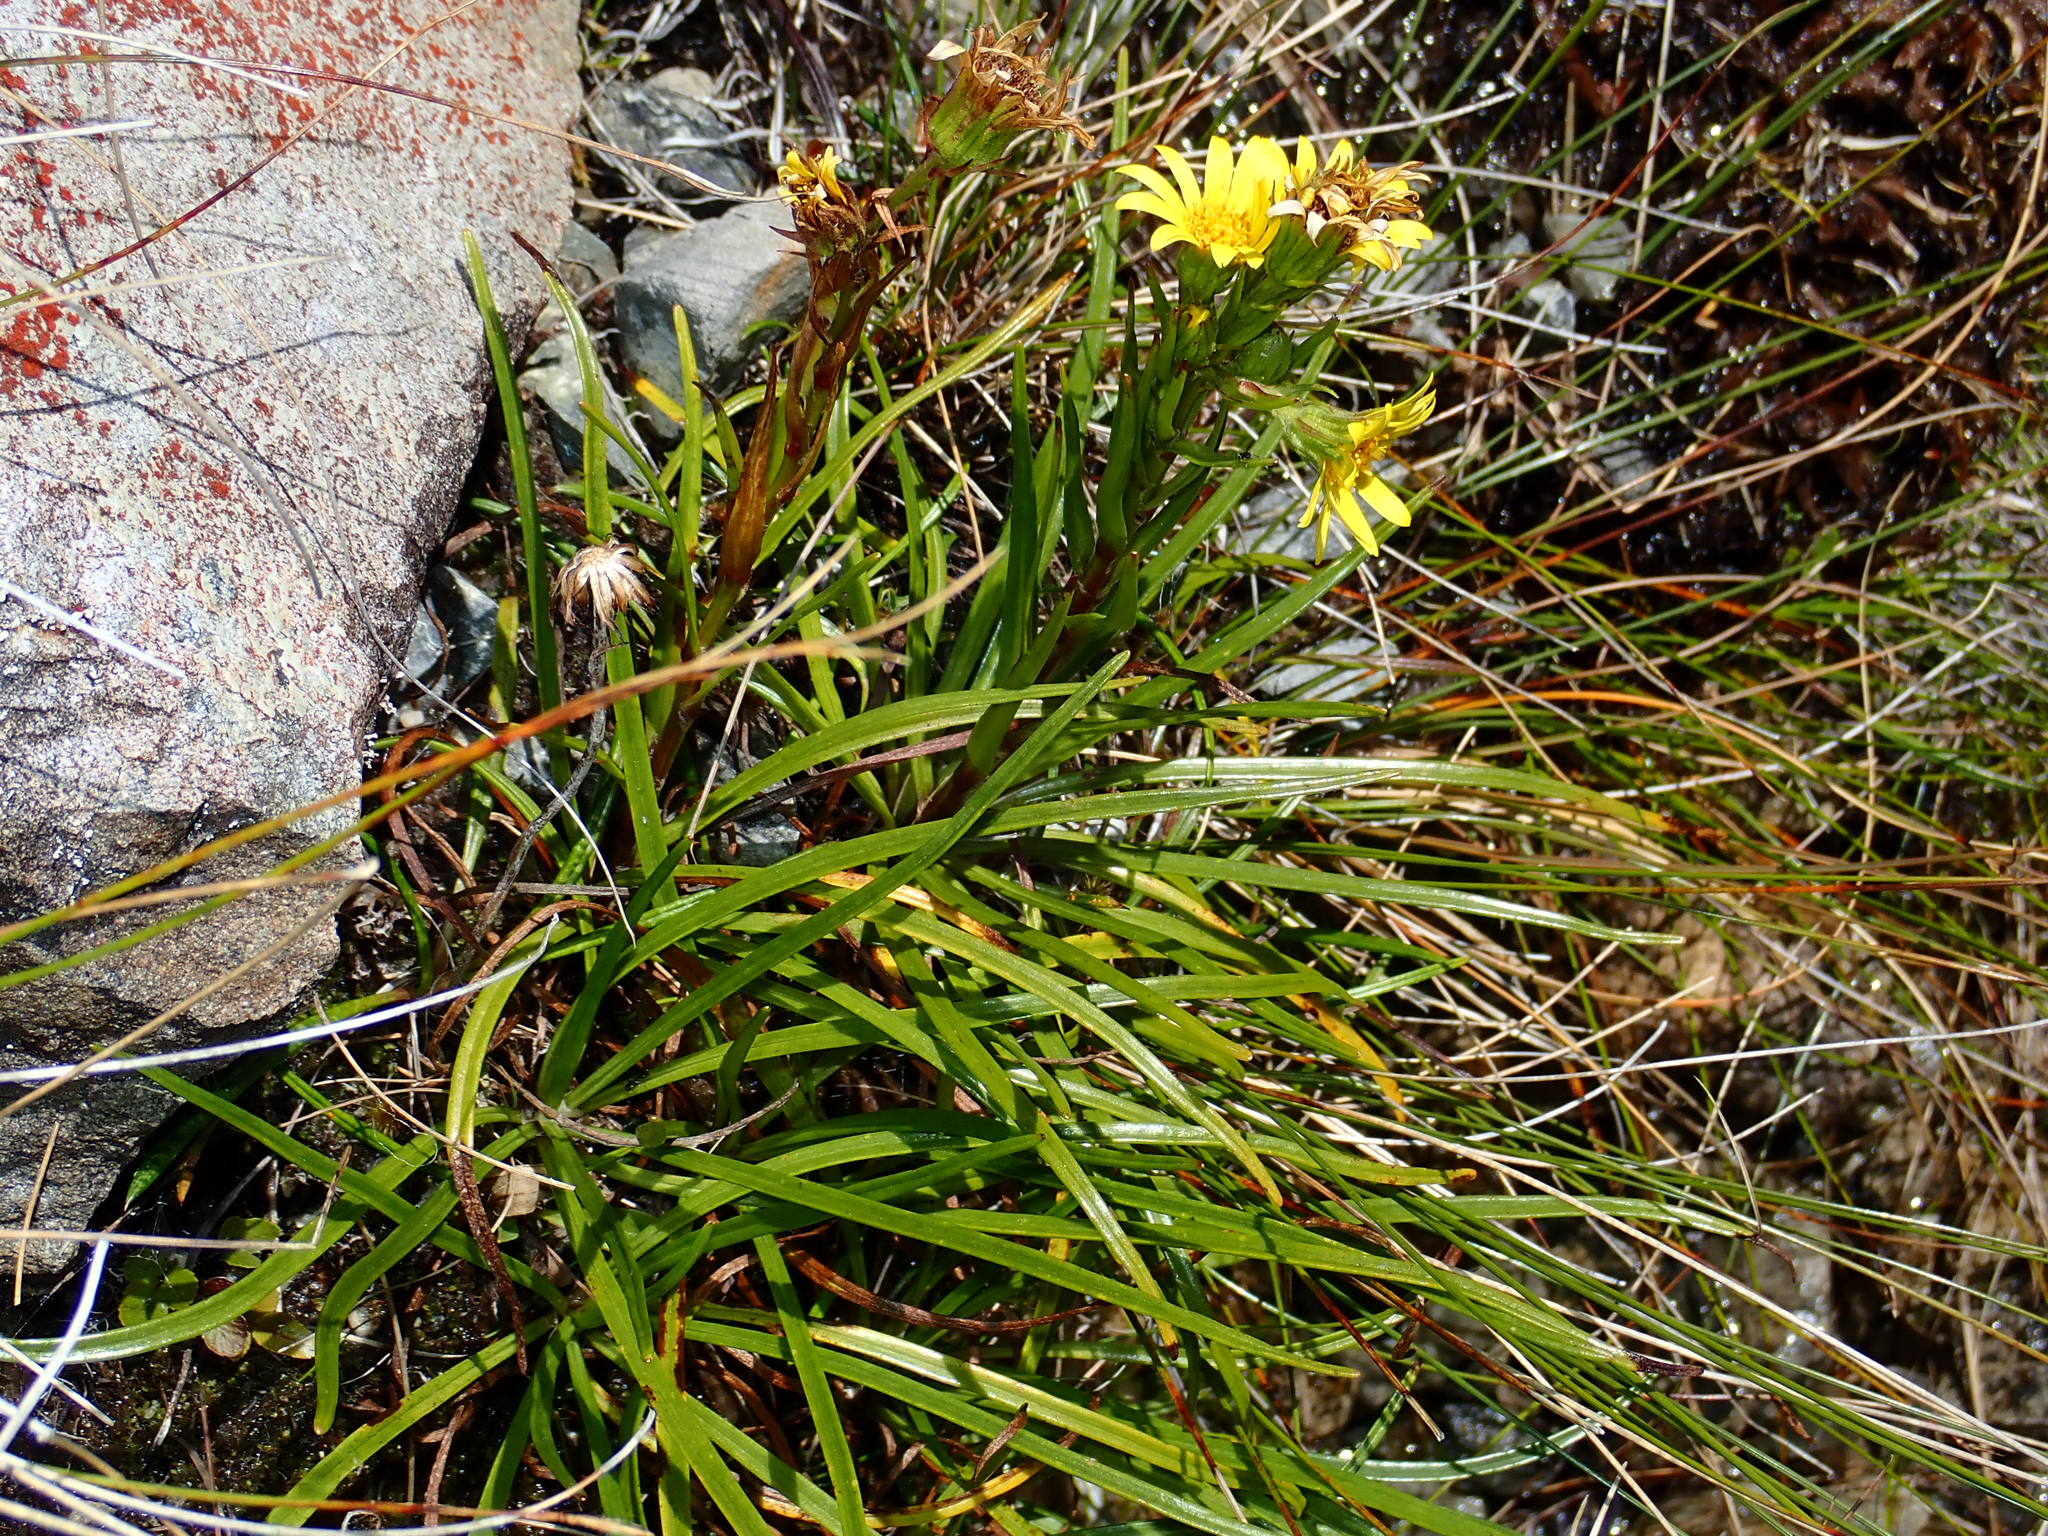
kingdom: Plantae
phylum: Tracheophyta
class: Magnoliopsida
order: Asterales
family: Asteraceae
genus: Dolichoglottis
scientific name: Dolichoglottis lyallii
